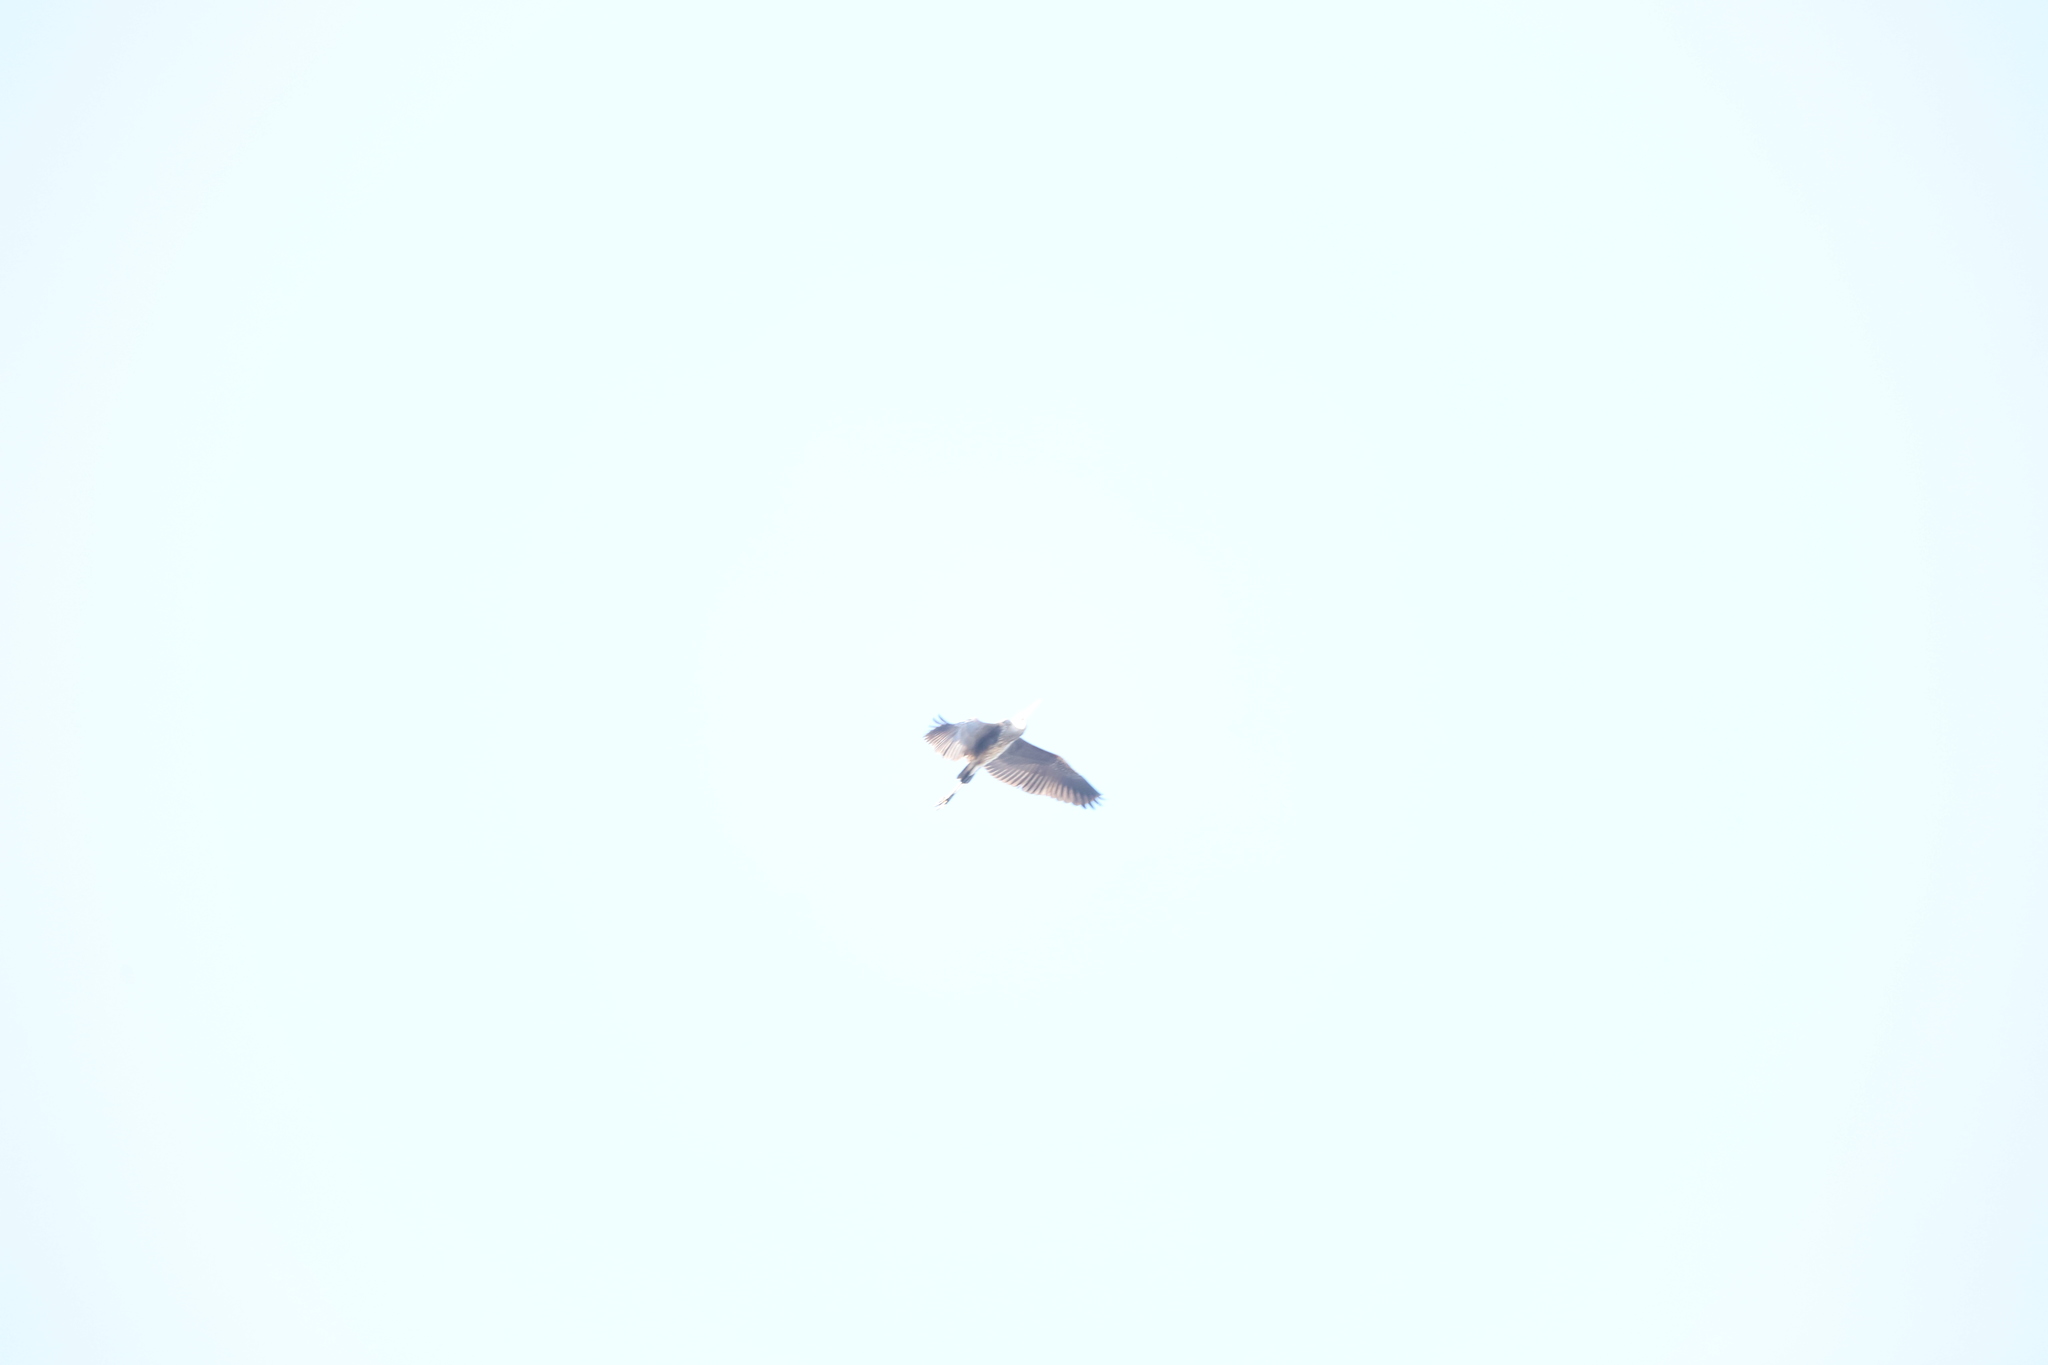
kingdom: Animalia
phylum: Chordata
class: Aves
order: Pelecaniformes
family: Ardeidae
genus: Ardea
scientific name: Ardea herodias
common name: Great blue heron
